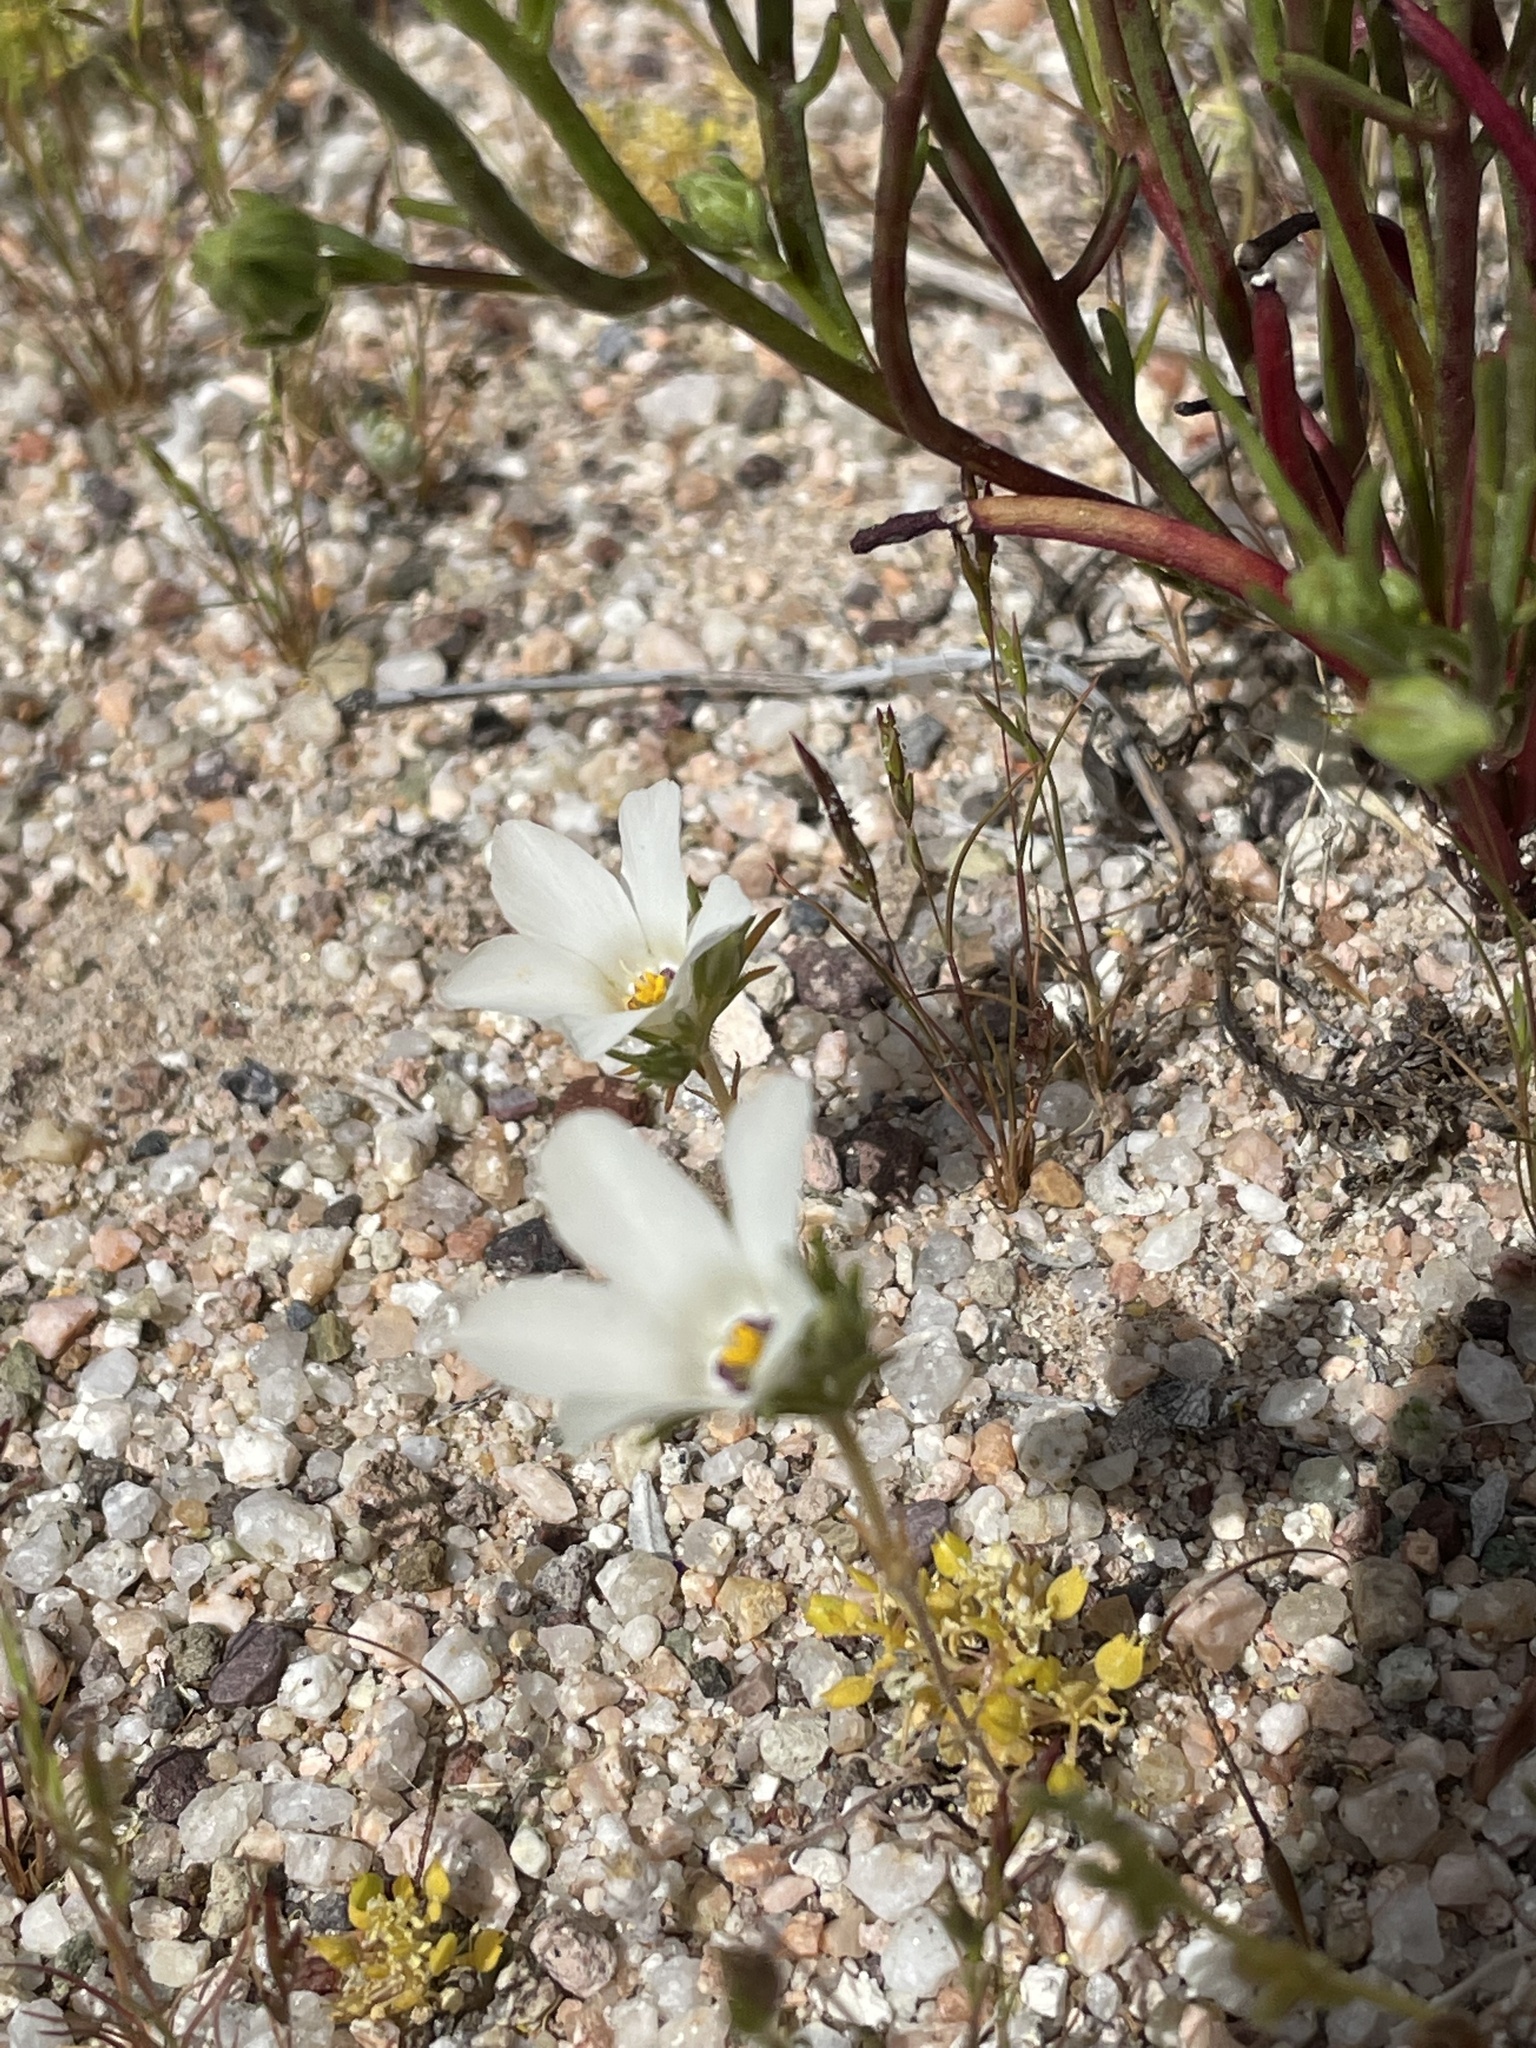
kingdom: Plantae
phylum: Tracheophyta
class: Magnoliopsida
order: Ericales
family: Polemoniaceae
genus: Linanthus
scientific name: Linanthus parryae
